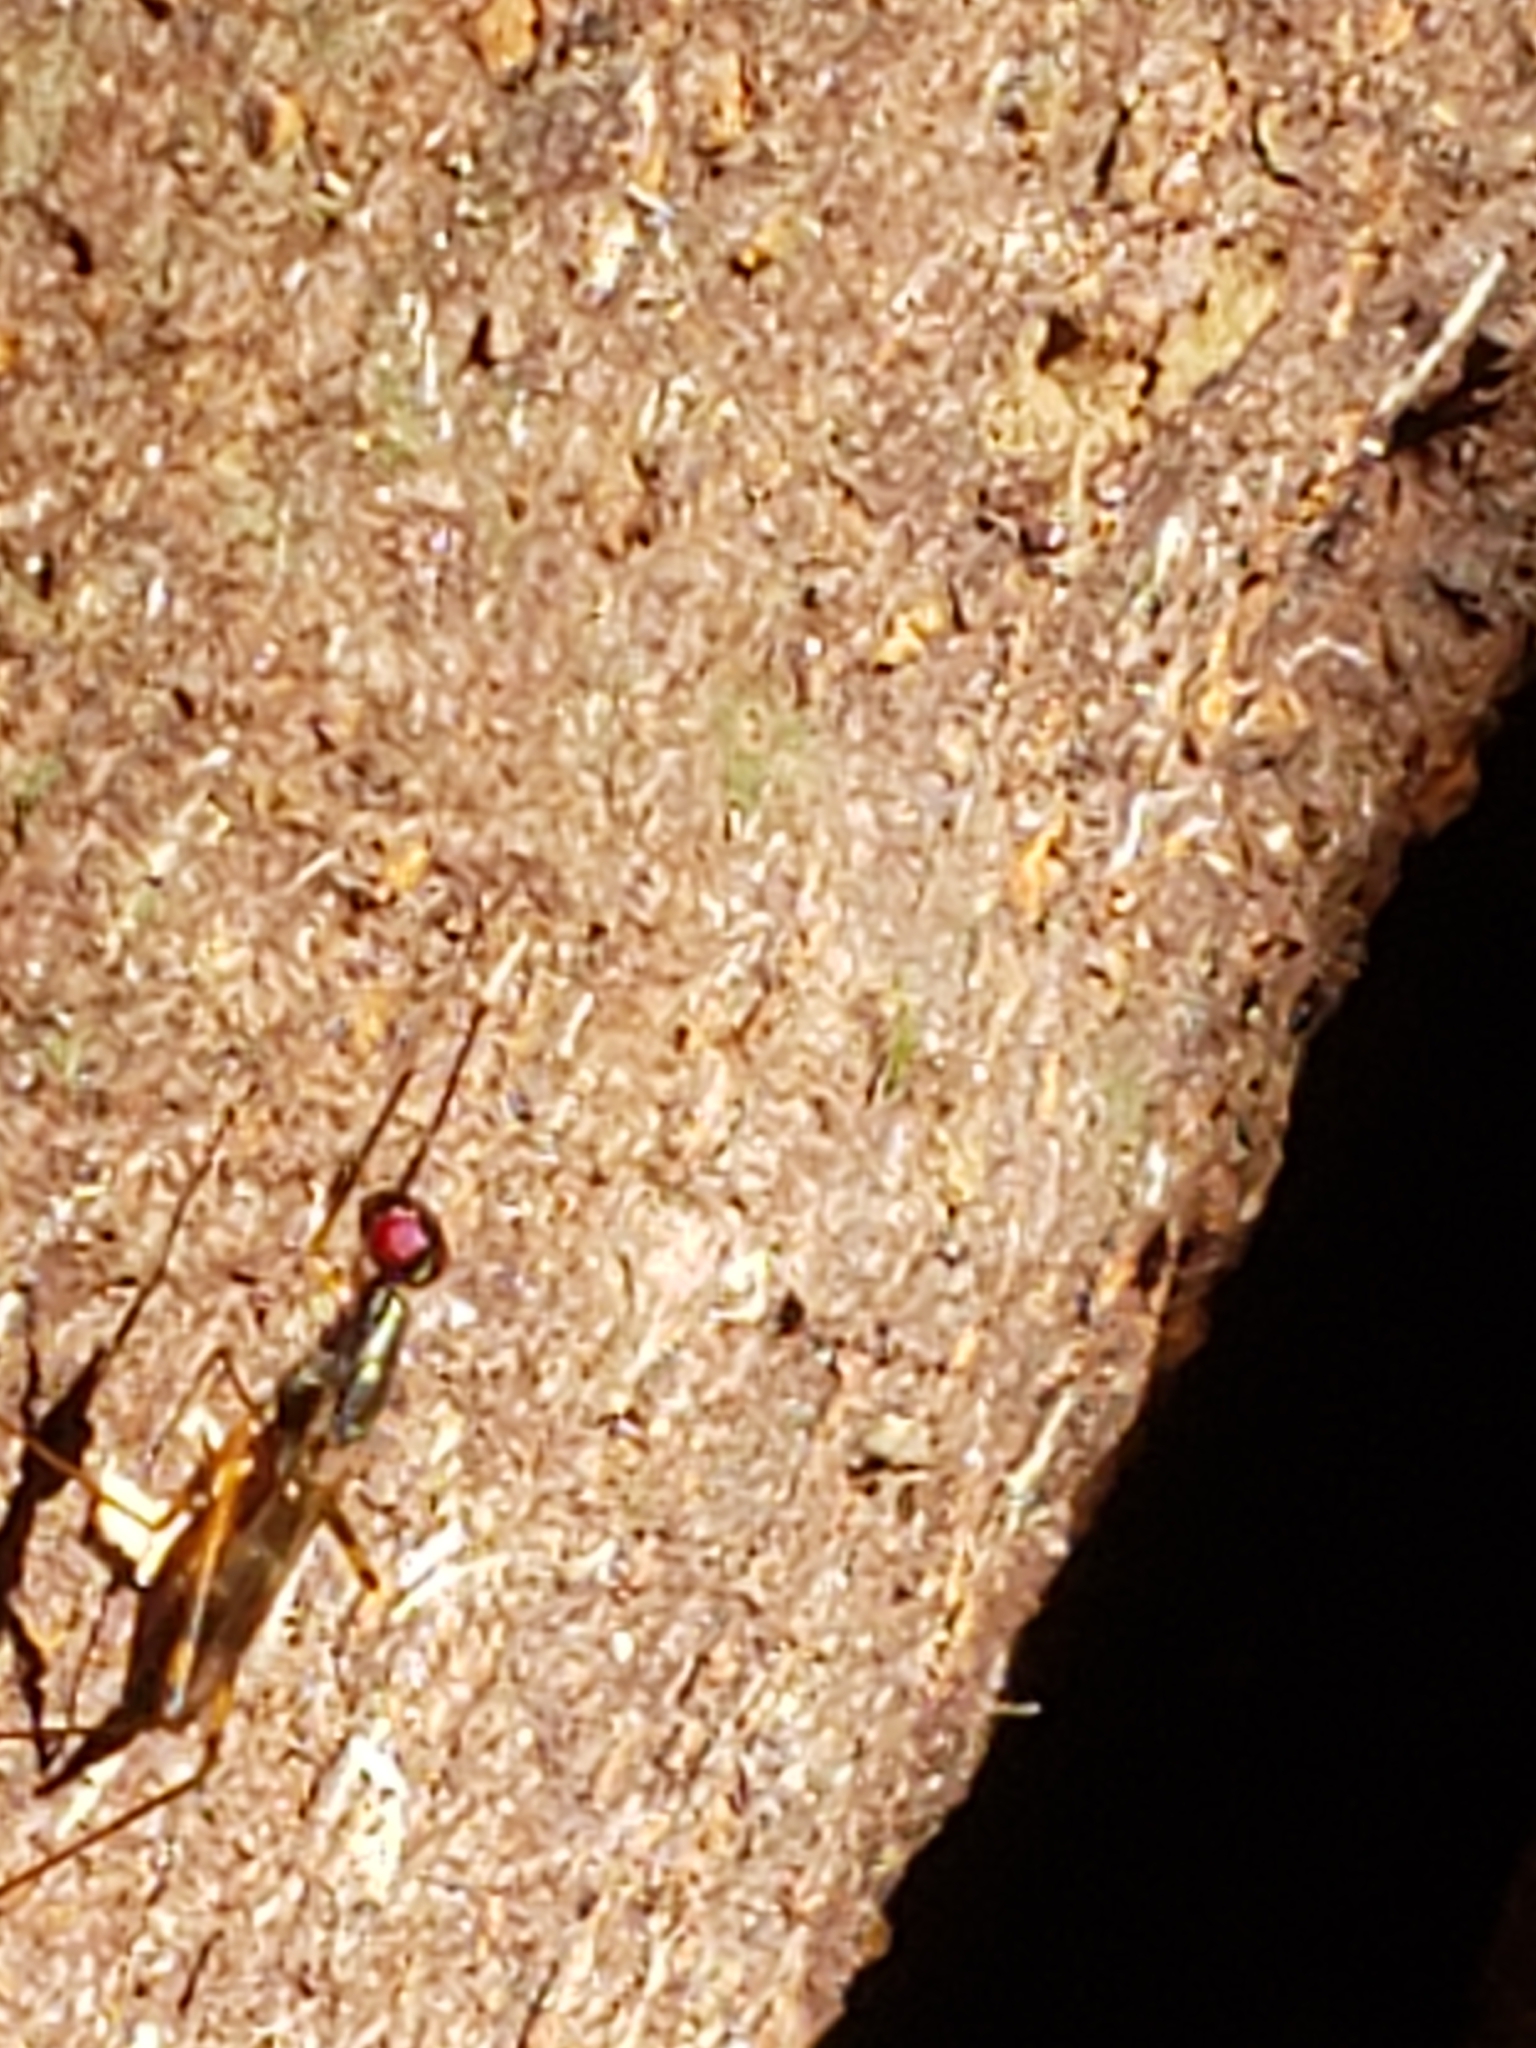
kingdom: Animalia
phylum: Arthropoda
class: Insecta
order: Diptera
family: Micropezidae
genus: Rainieria
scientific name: Rainieria antennaepes
